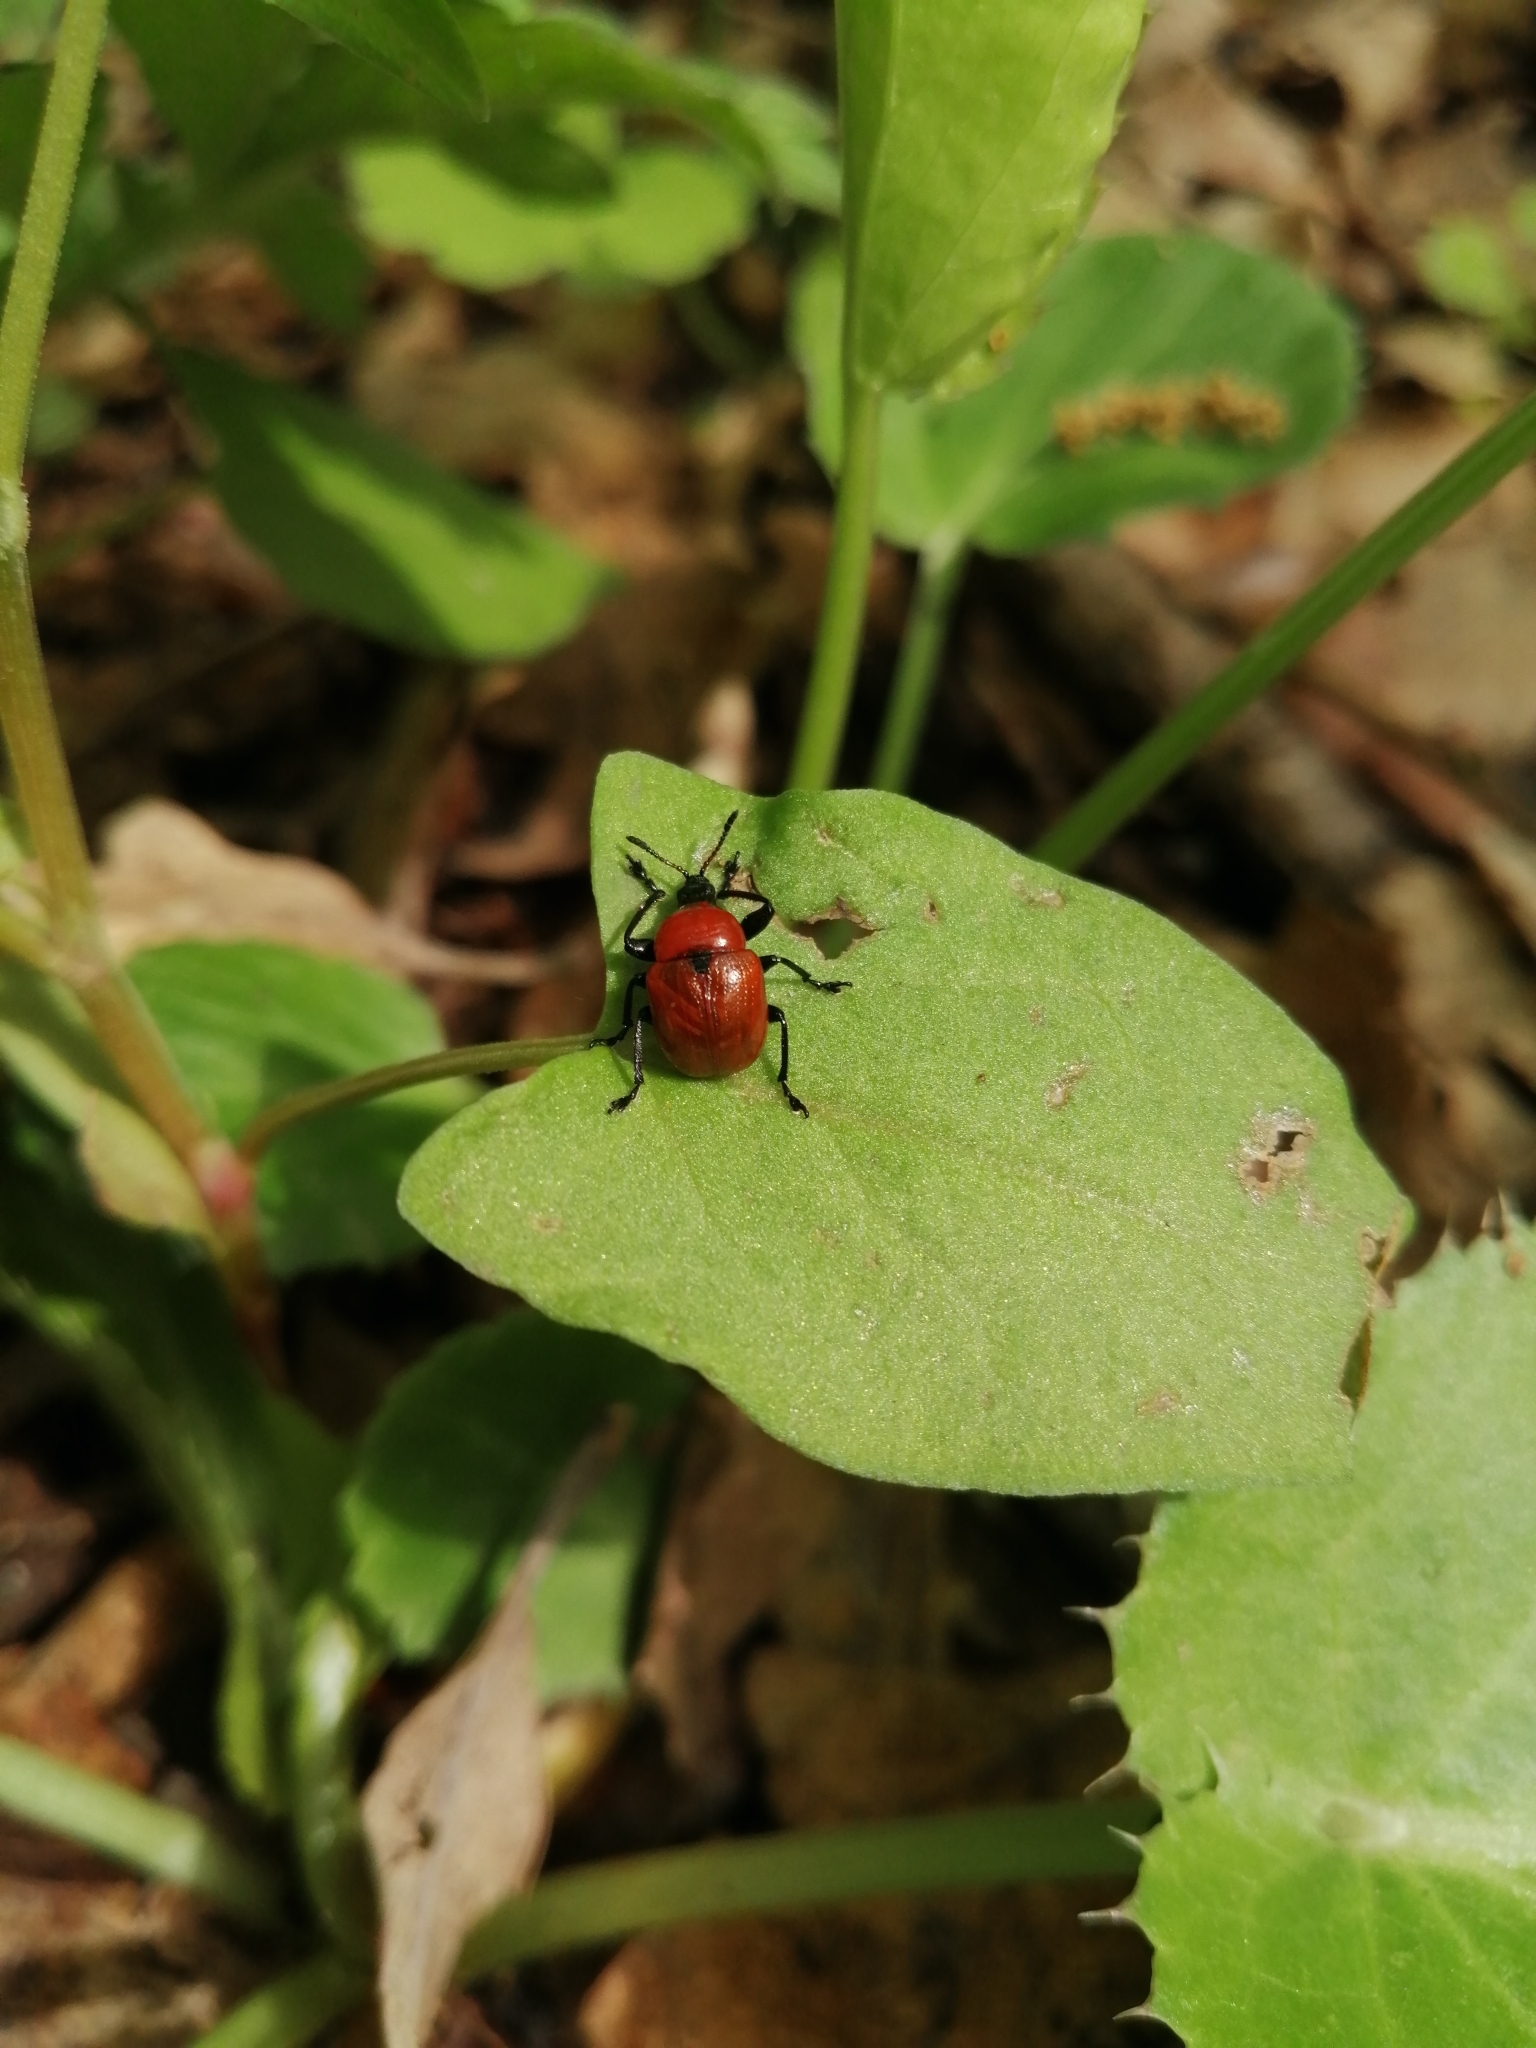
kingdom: Animalia
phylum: Arthropoda
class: Insecta
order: Coleoptera
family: Attelabidae
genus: Attelabus
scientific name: Attelabus nitens
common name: Oak leaf-roller
